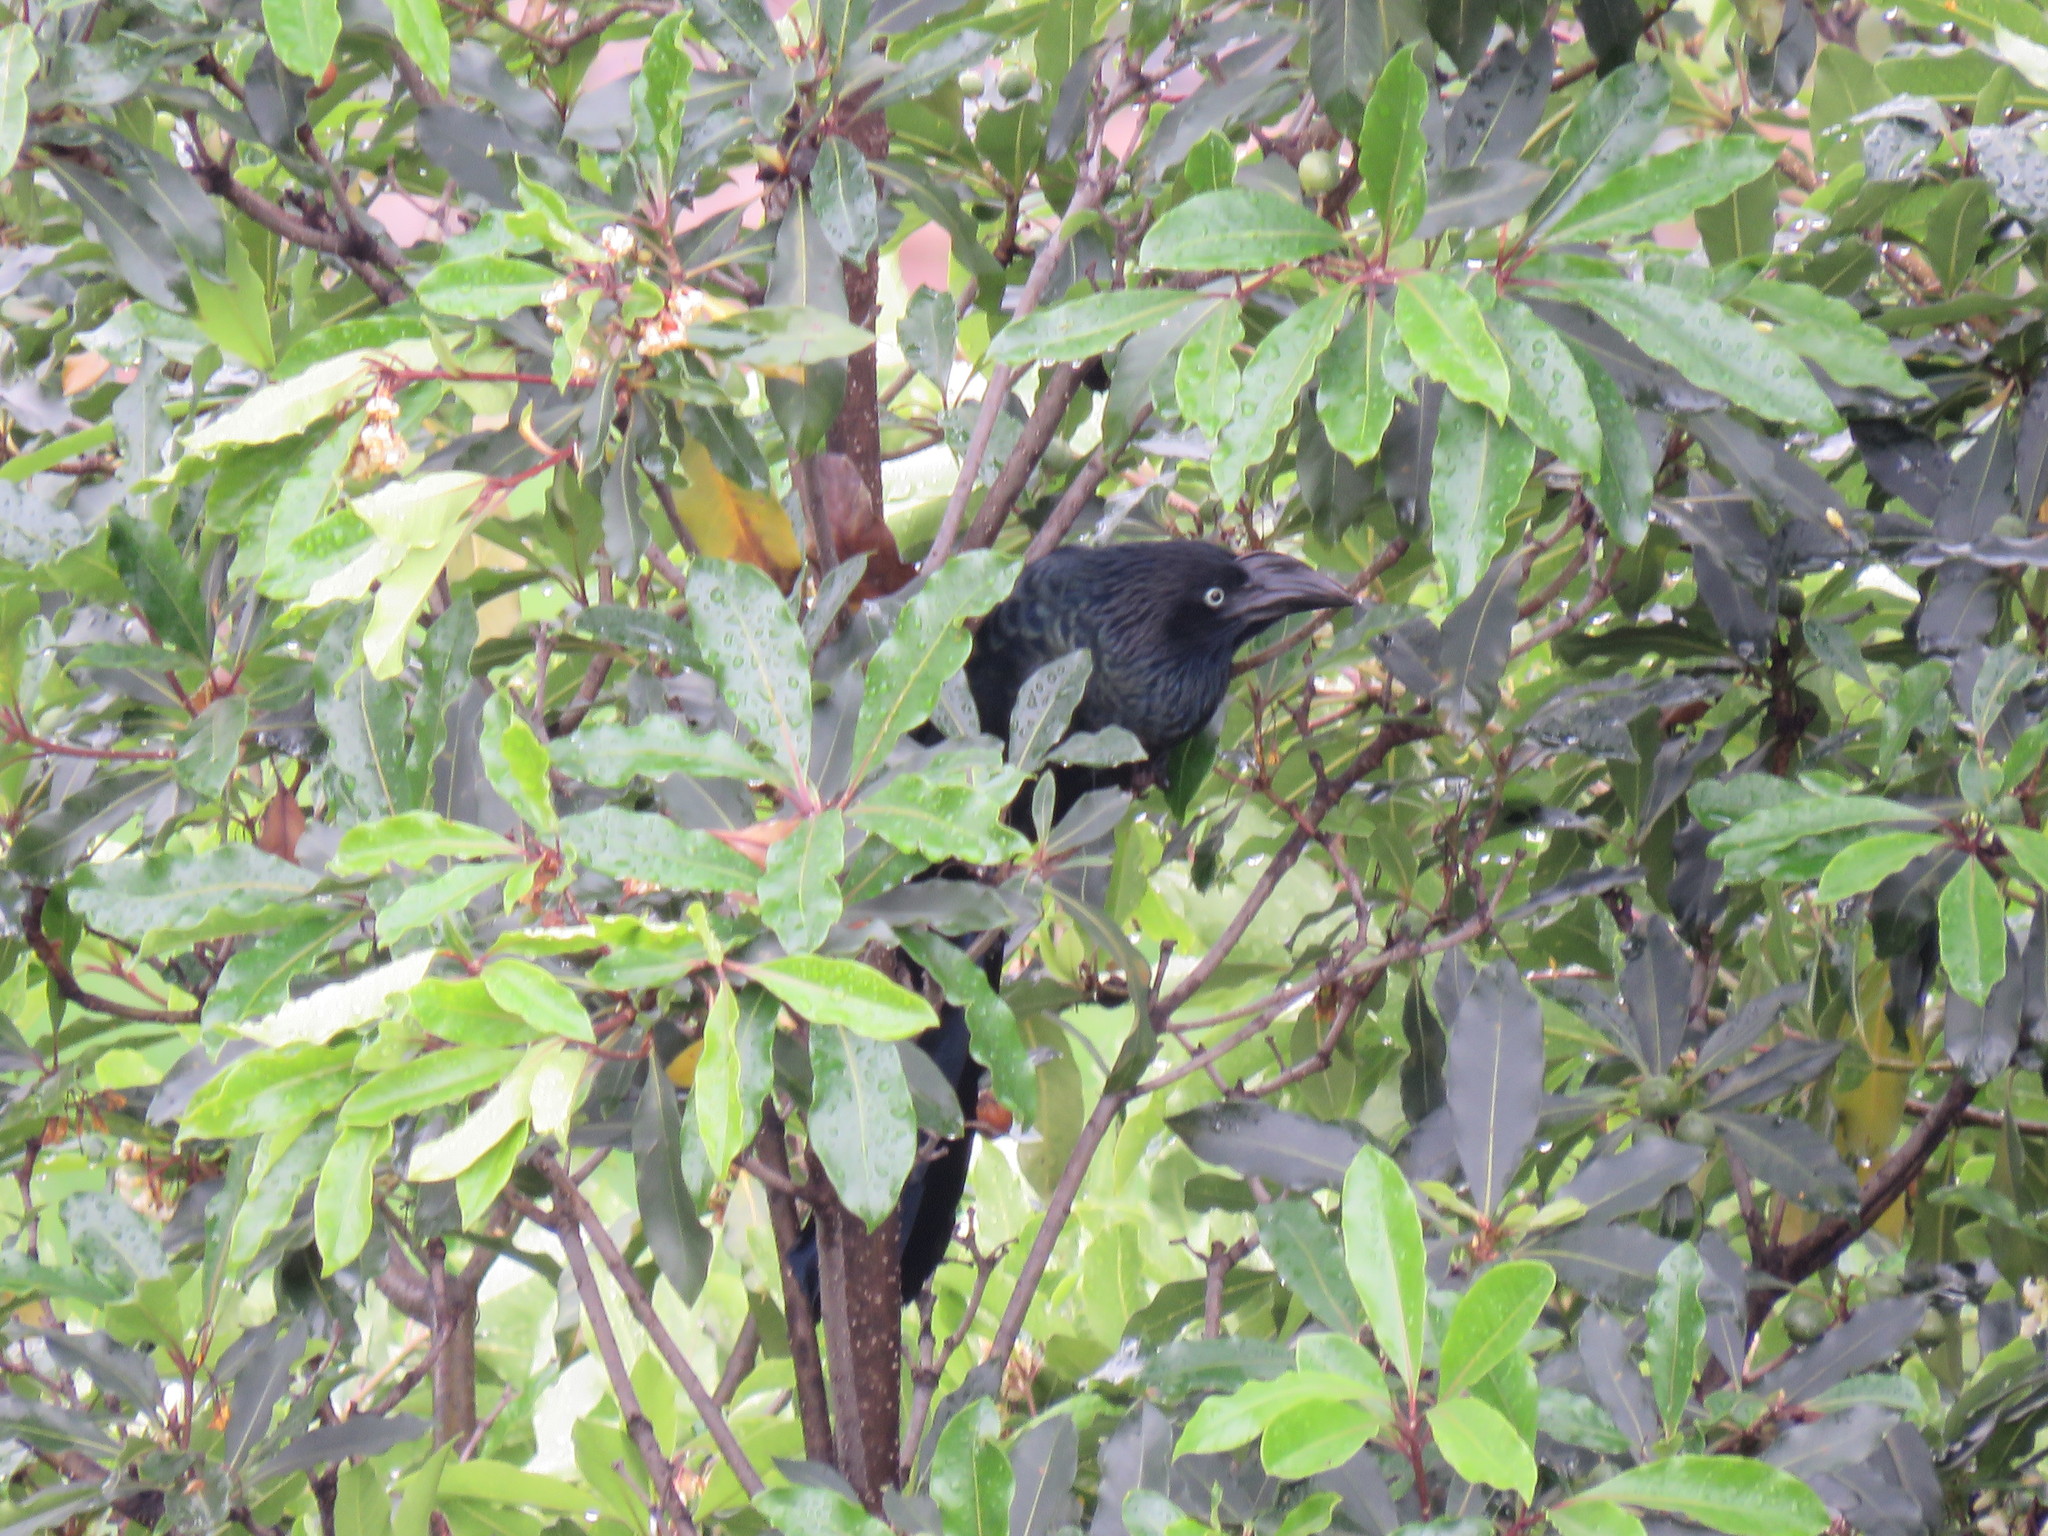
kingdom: Animalia
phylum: Chordata
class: Aves
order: Cuculiformes
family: Cuculidae
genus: Crotophaga
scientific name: Crotophaga major
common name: Greater ani
